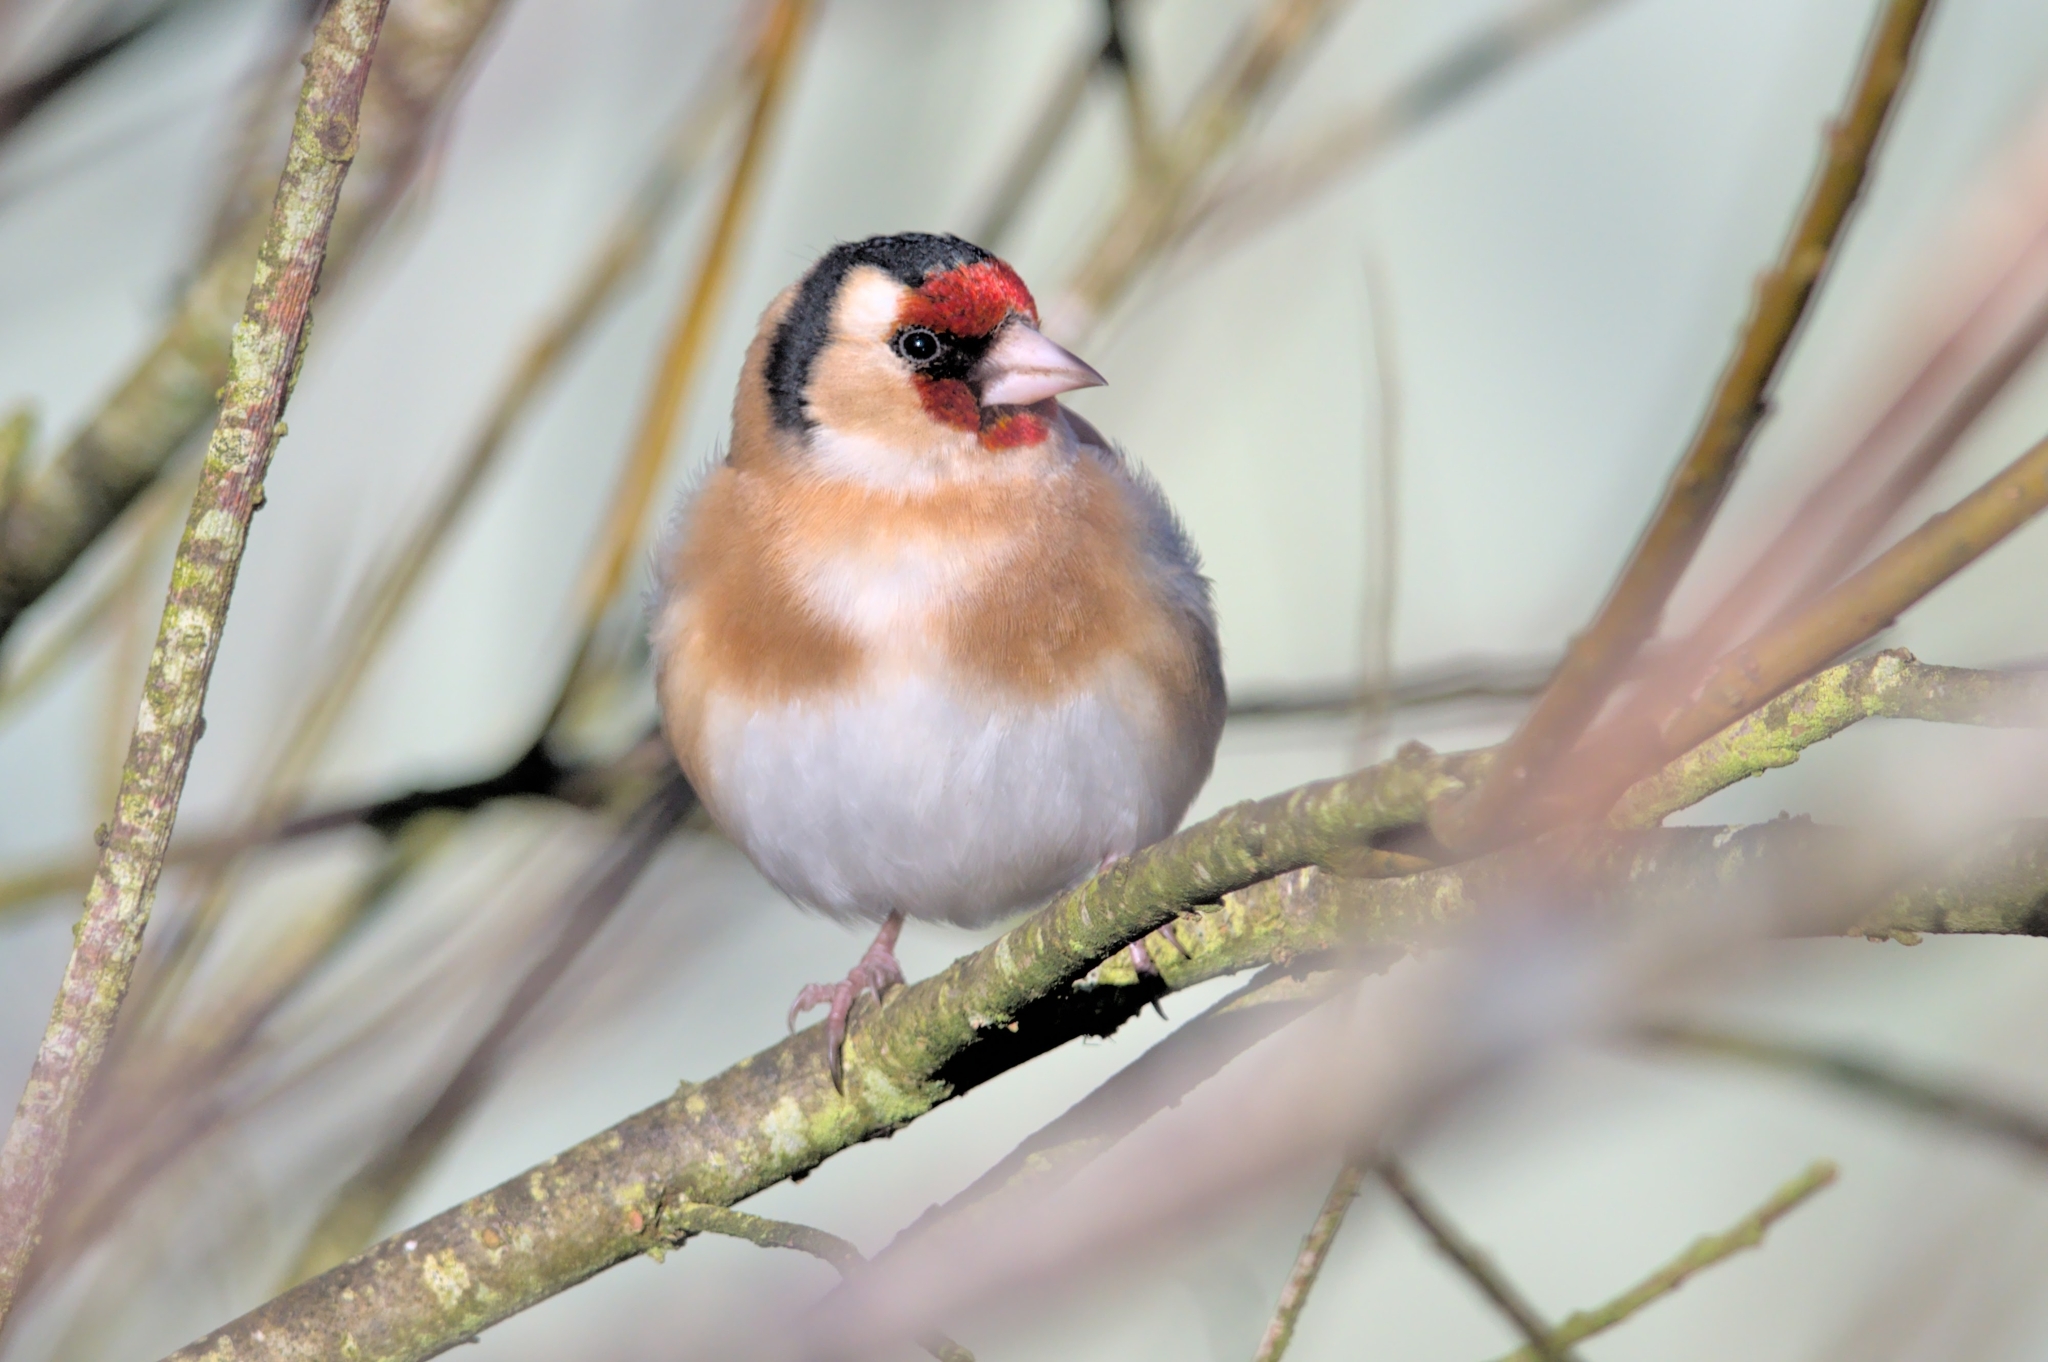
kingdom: Animalia
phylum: Chordata
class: Aves
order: Passeriformes
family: Fringillidae
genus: Carduelis
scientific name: Carduelis carduelis
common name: European goldfinch
